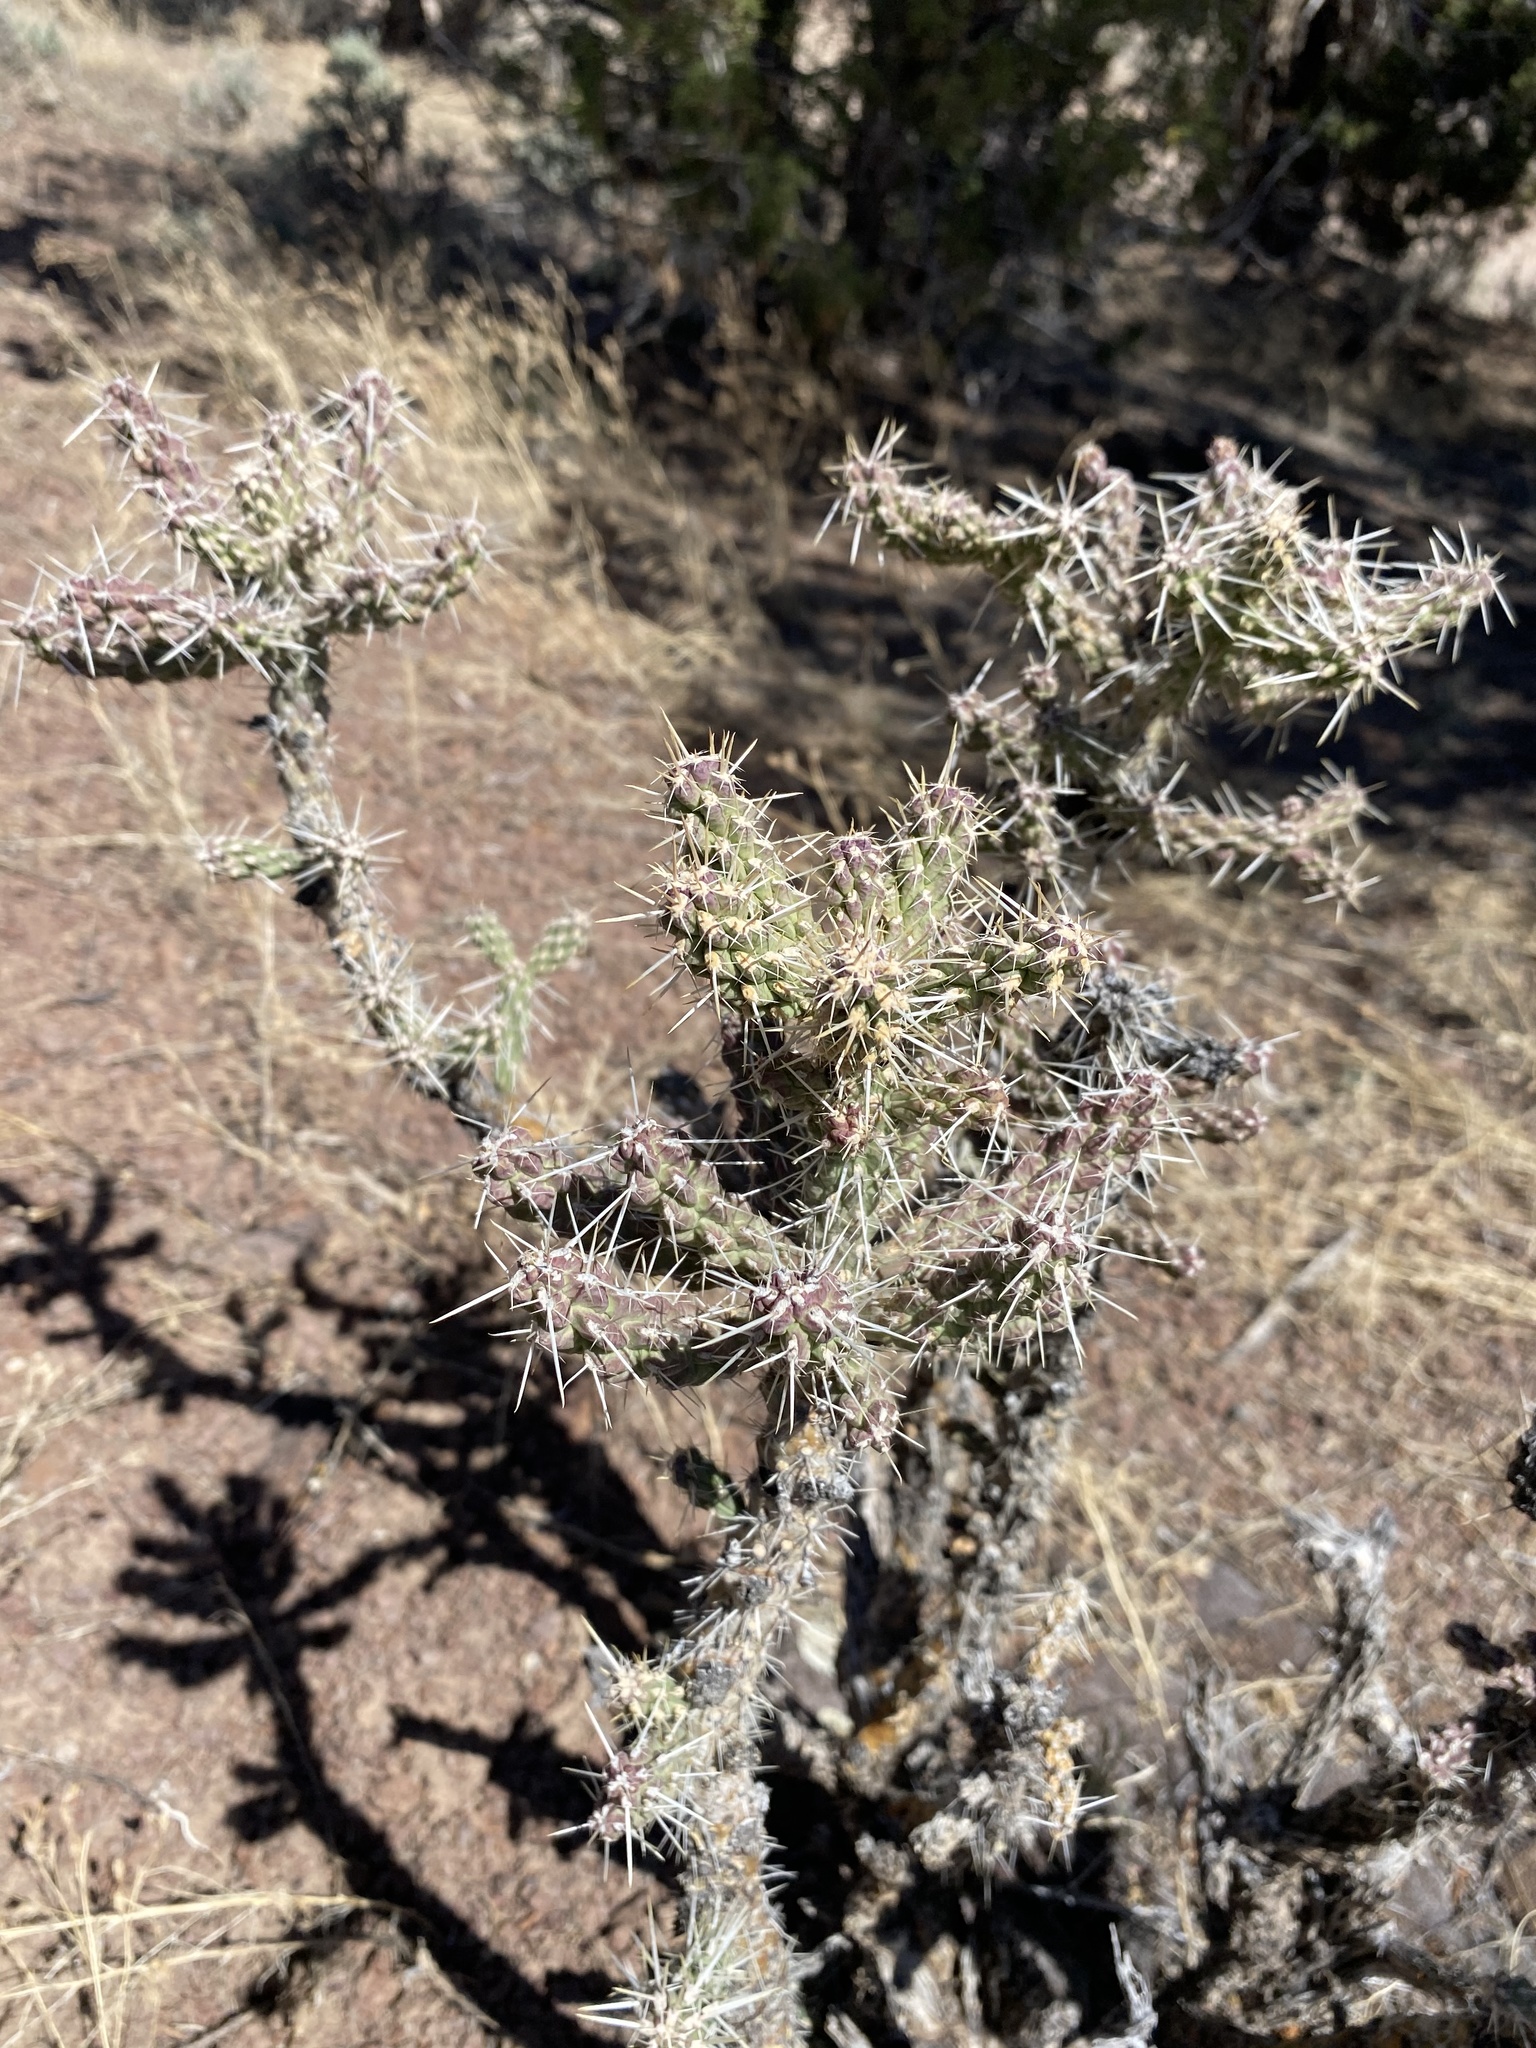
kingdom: Plantae
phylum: Tracheophyta
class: Magnoliopsida
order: Caryophyllales
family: Cactaceae
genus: Cylindropuntia
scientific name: Cylindropuntia whipplei
